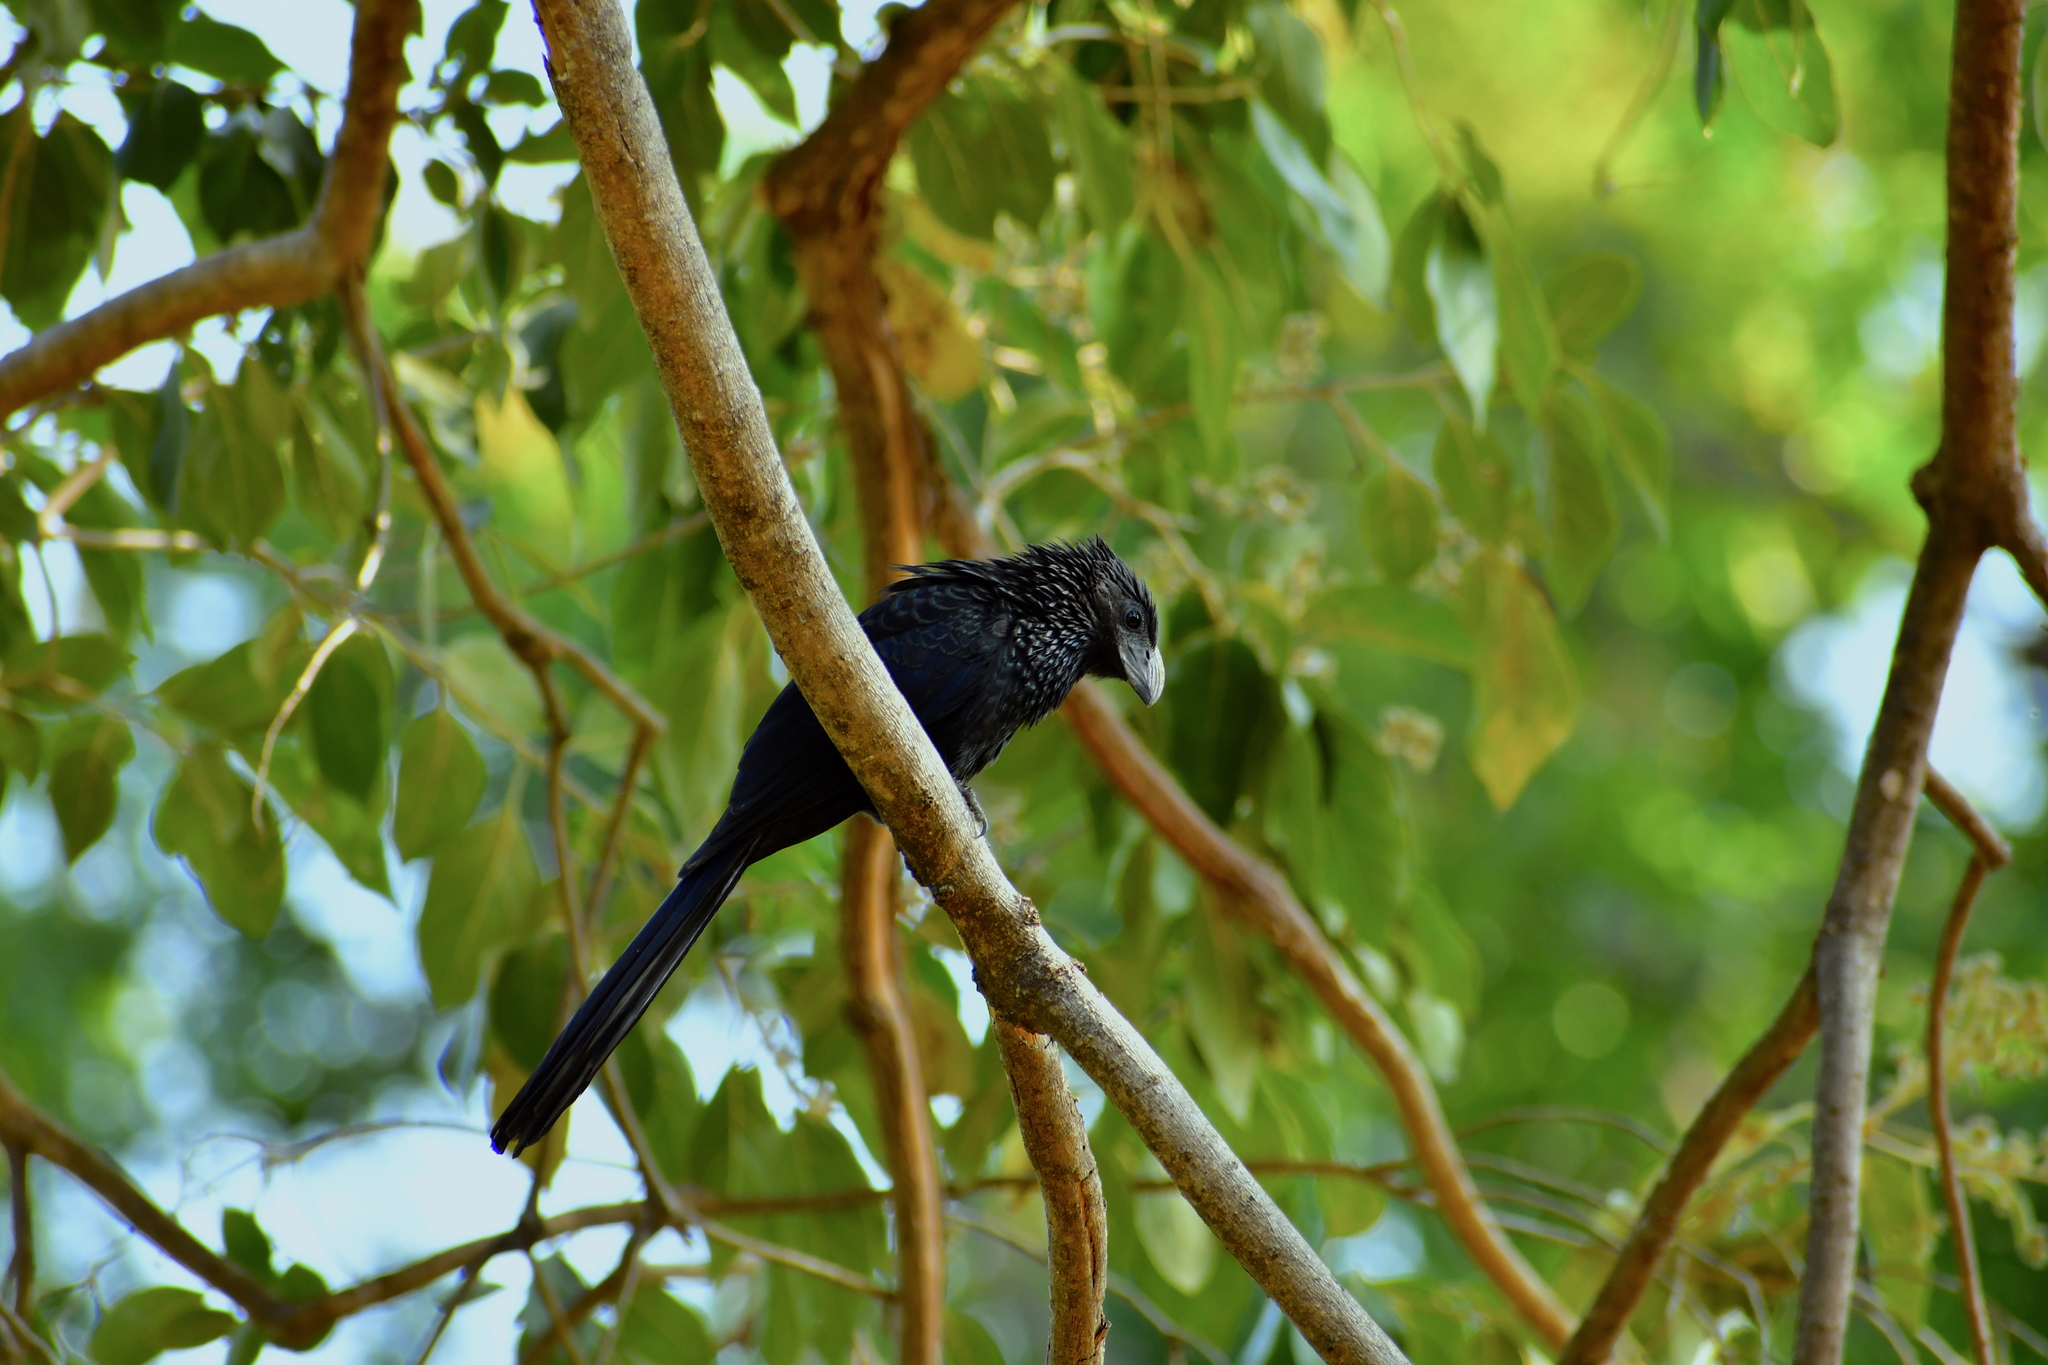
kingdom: Animalia
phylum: Chordata
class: Aves
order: Cuculiformes
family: Cuculidae
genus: Crotophaga
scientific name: Crotophaga sulcirostris
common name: Groove-billed ani
